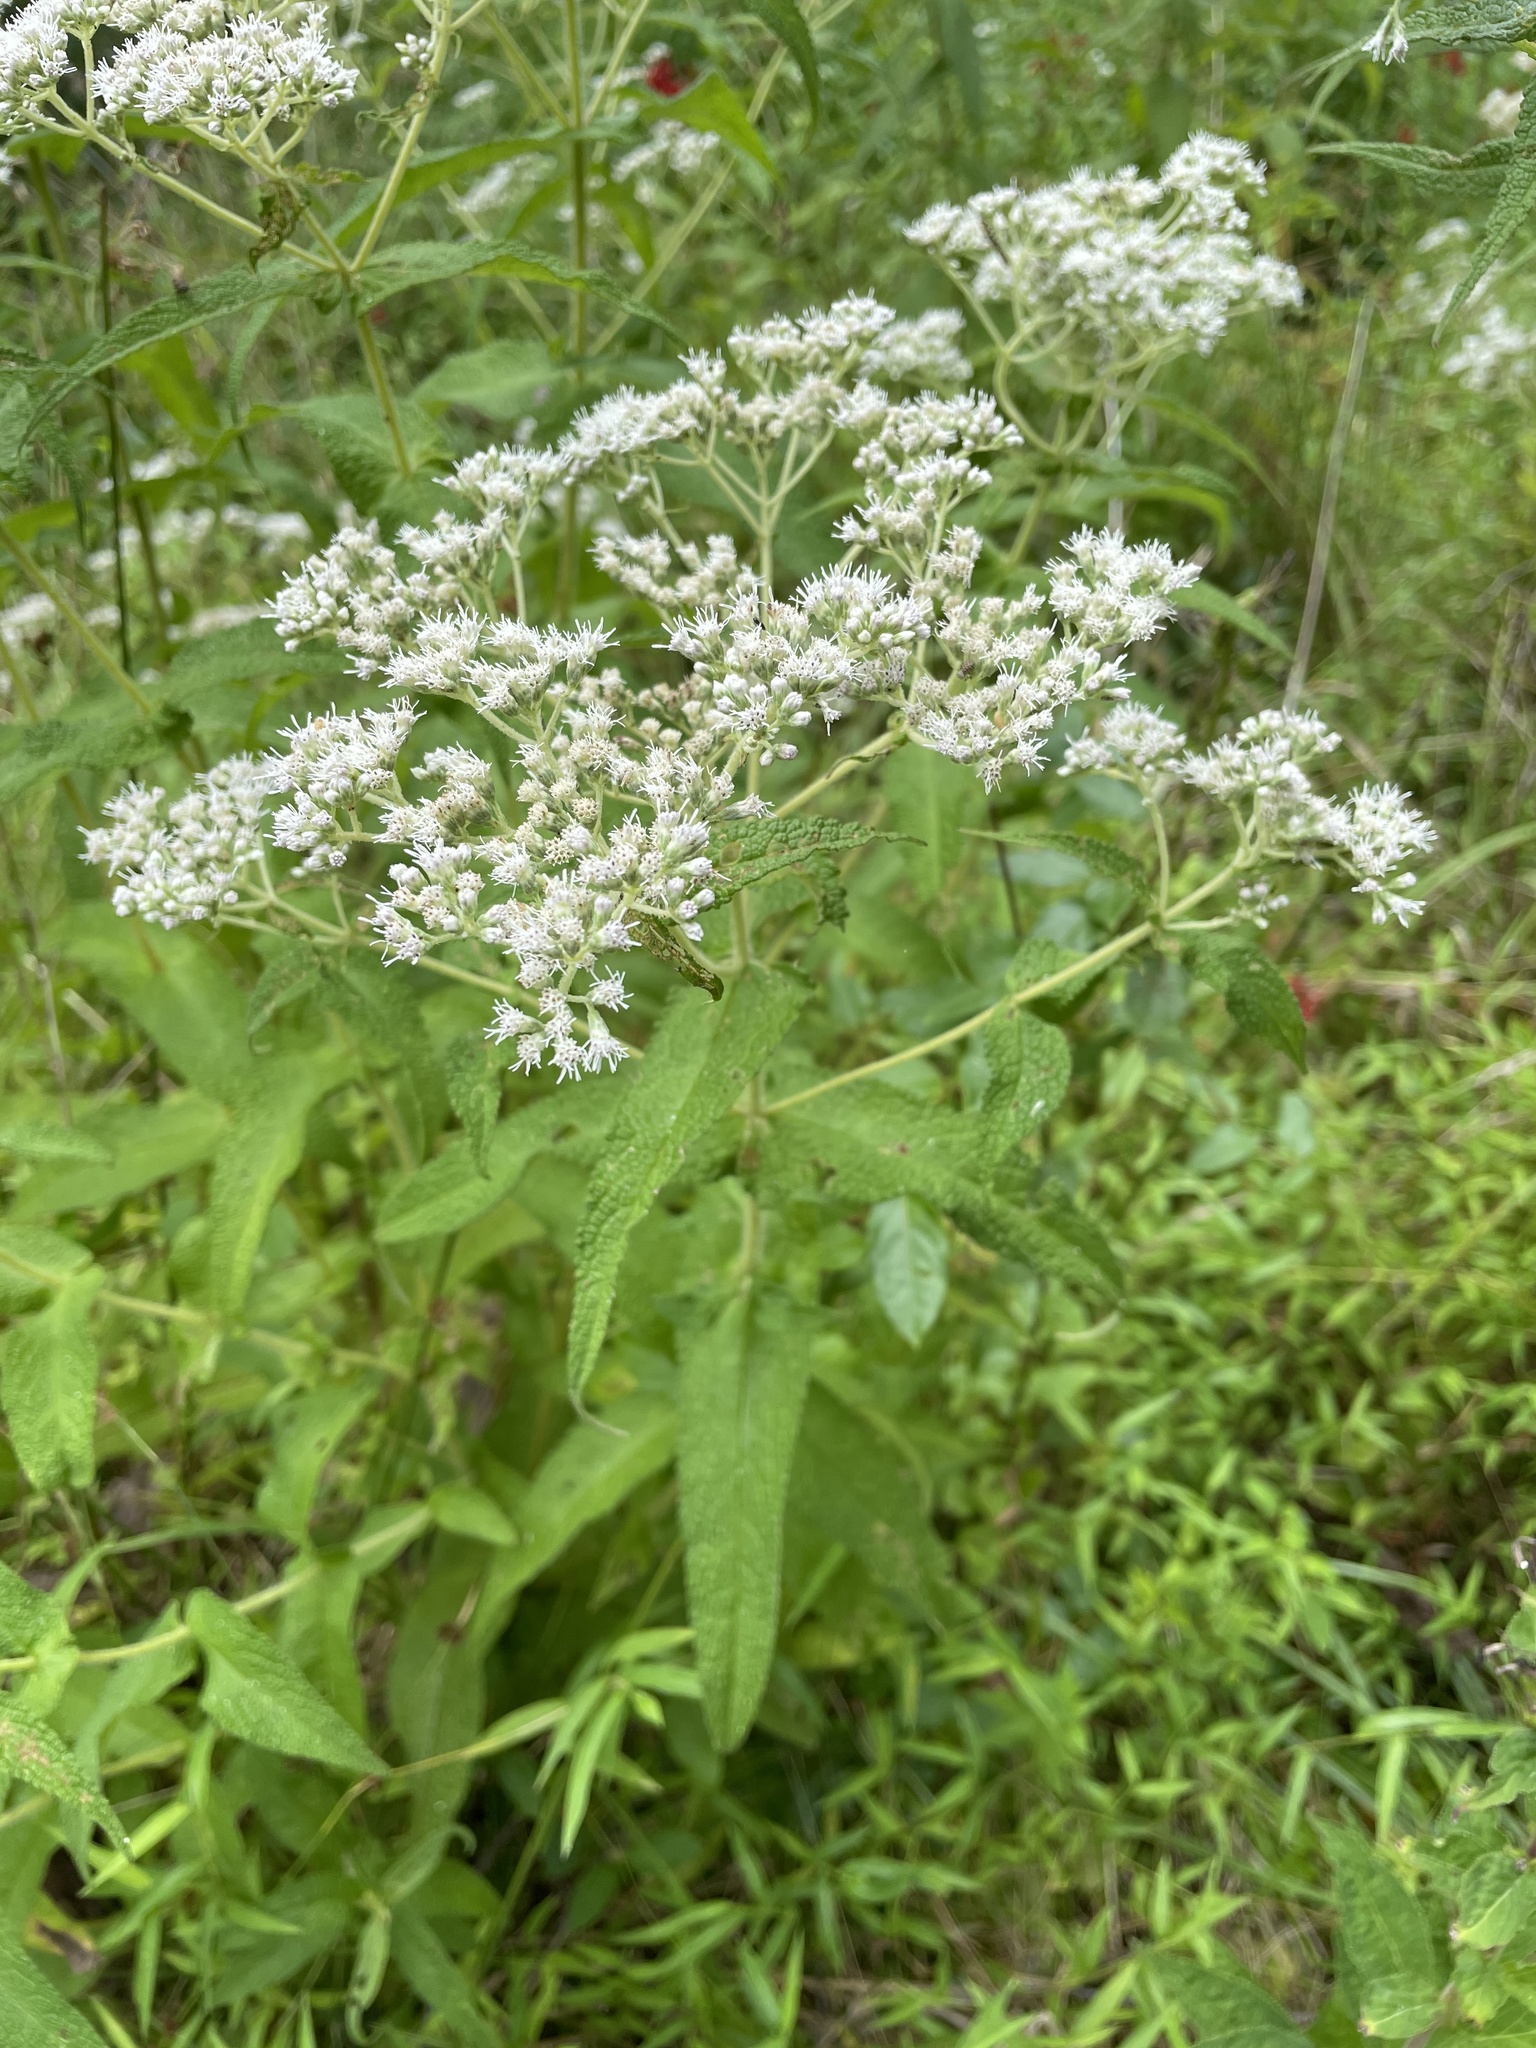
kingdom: Plantae
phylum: Tracheophyta
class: Magnoliopsida
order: Asterales
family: Asteraceae
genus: Eupatorium
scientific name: Eupatorium perfoliatum
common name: Boneset
